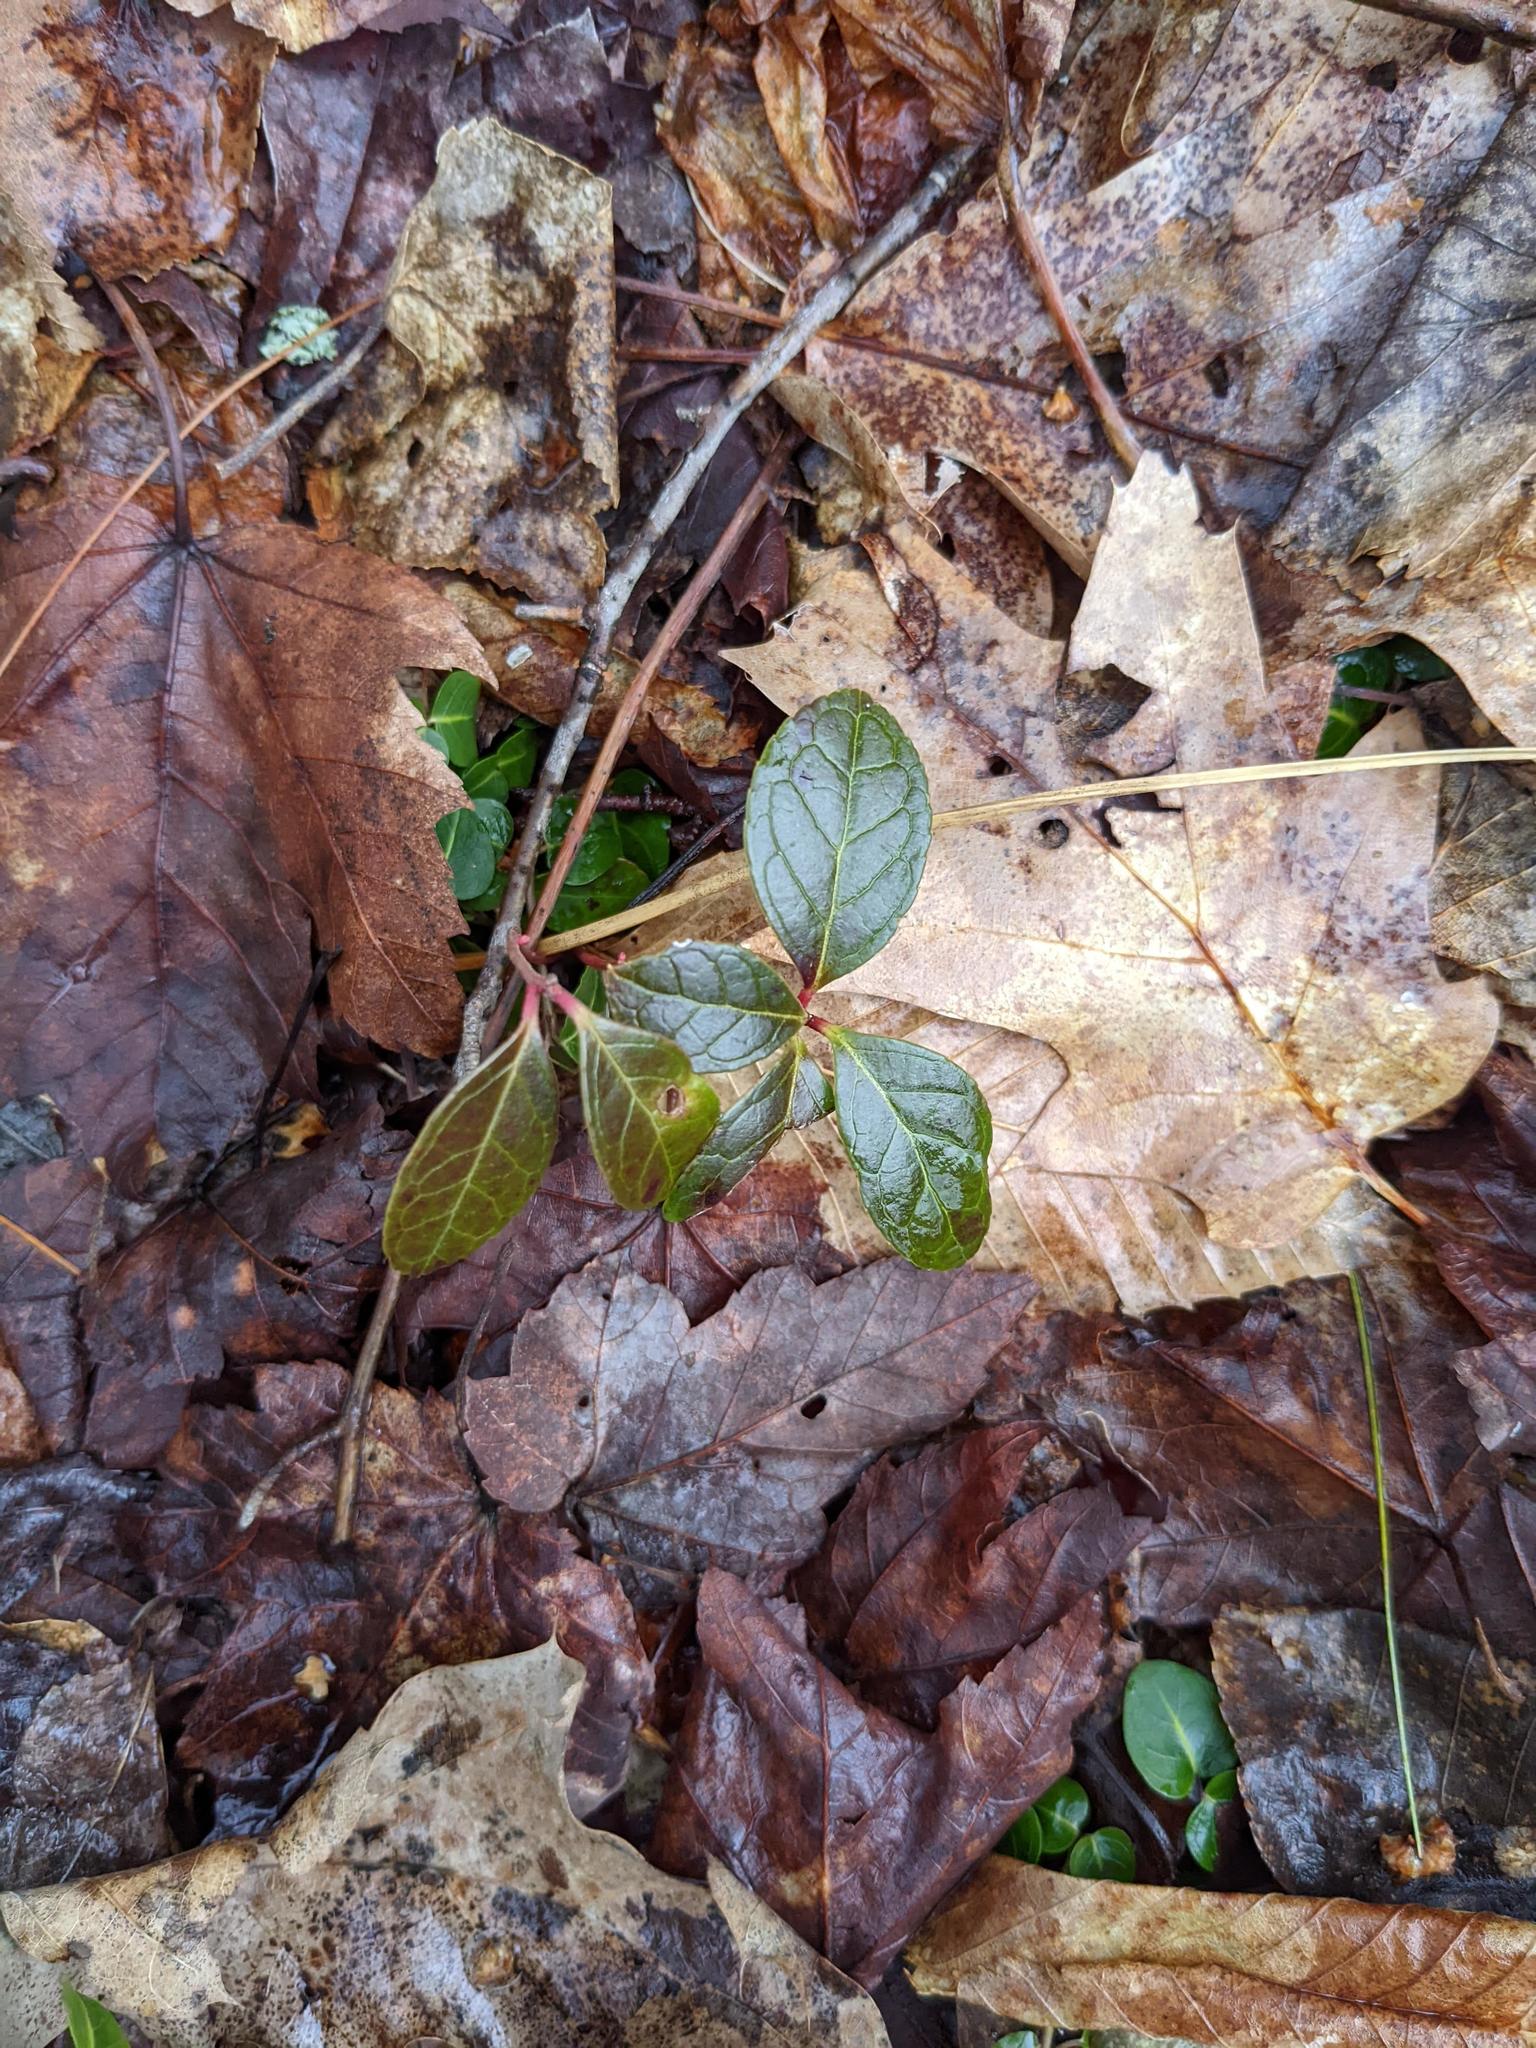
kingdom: Plantae
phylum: Tracheophyta
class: Magnoliopsida
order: Ericales
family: Ericaceae
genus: Gaultheria
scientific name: Gaultheria procumbens
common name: Checkerberry
